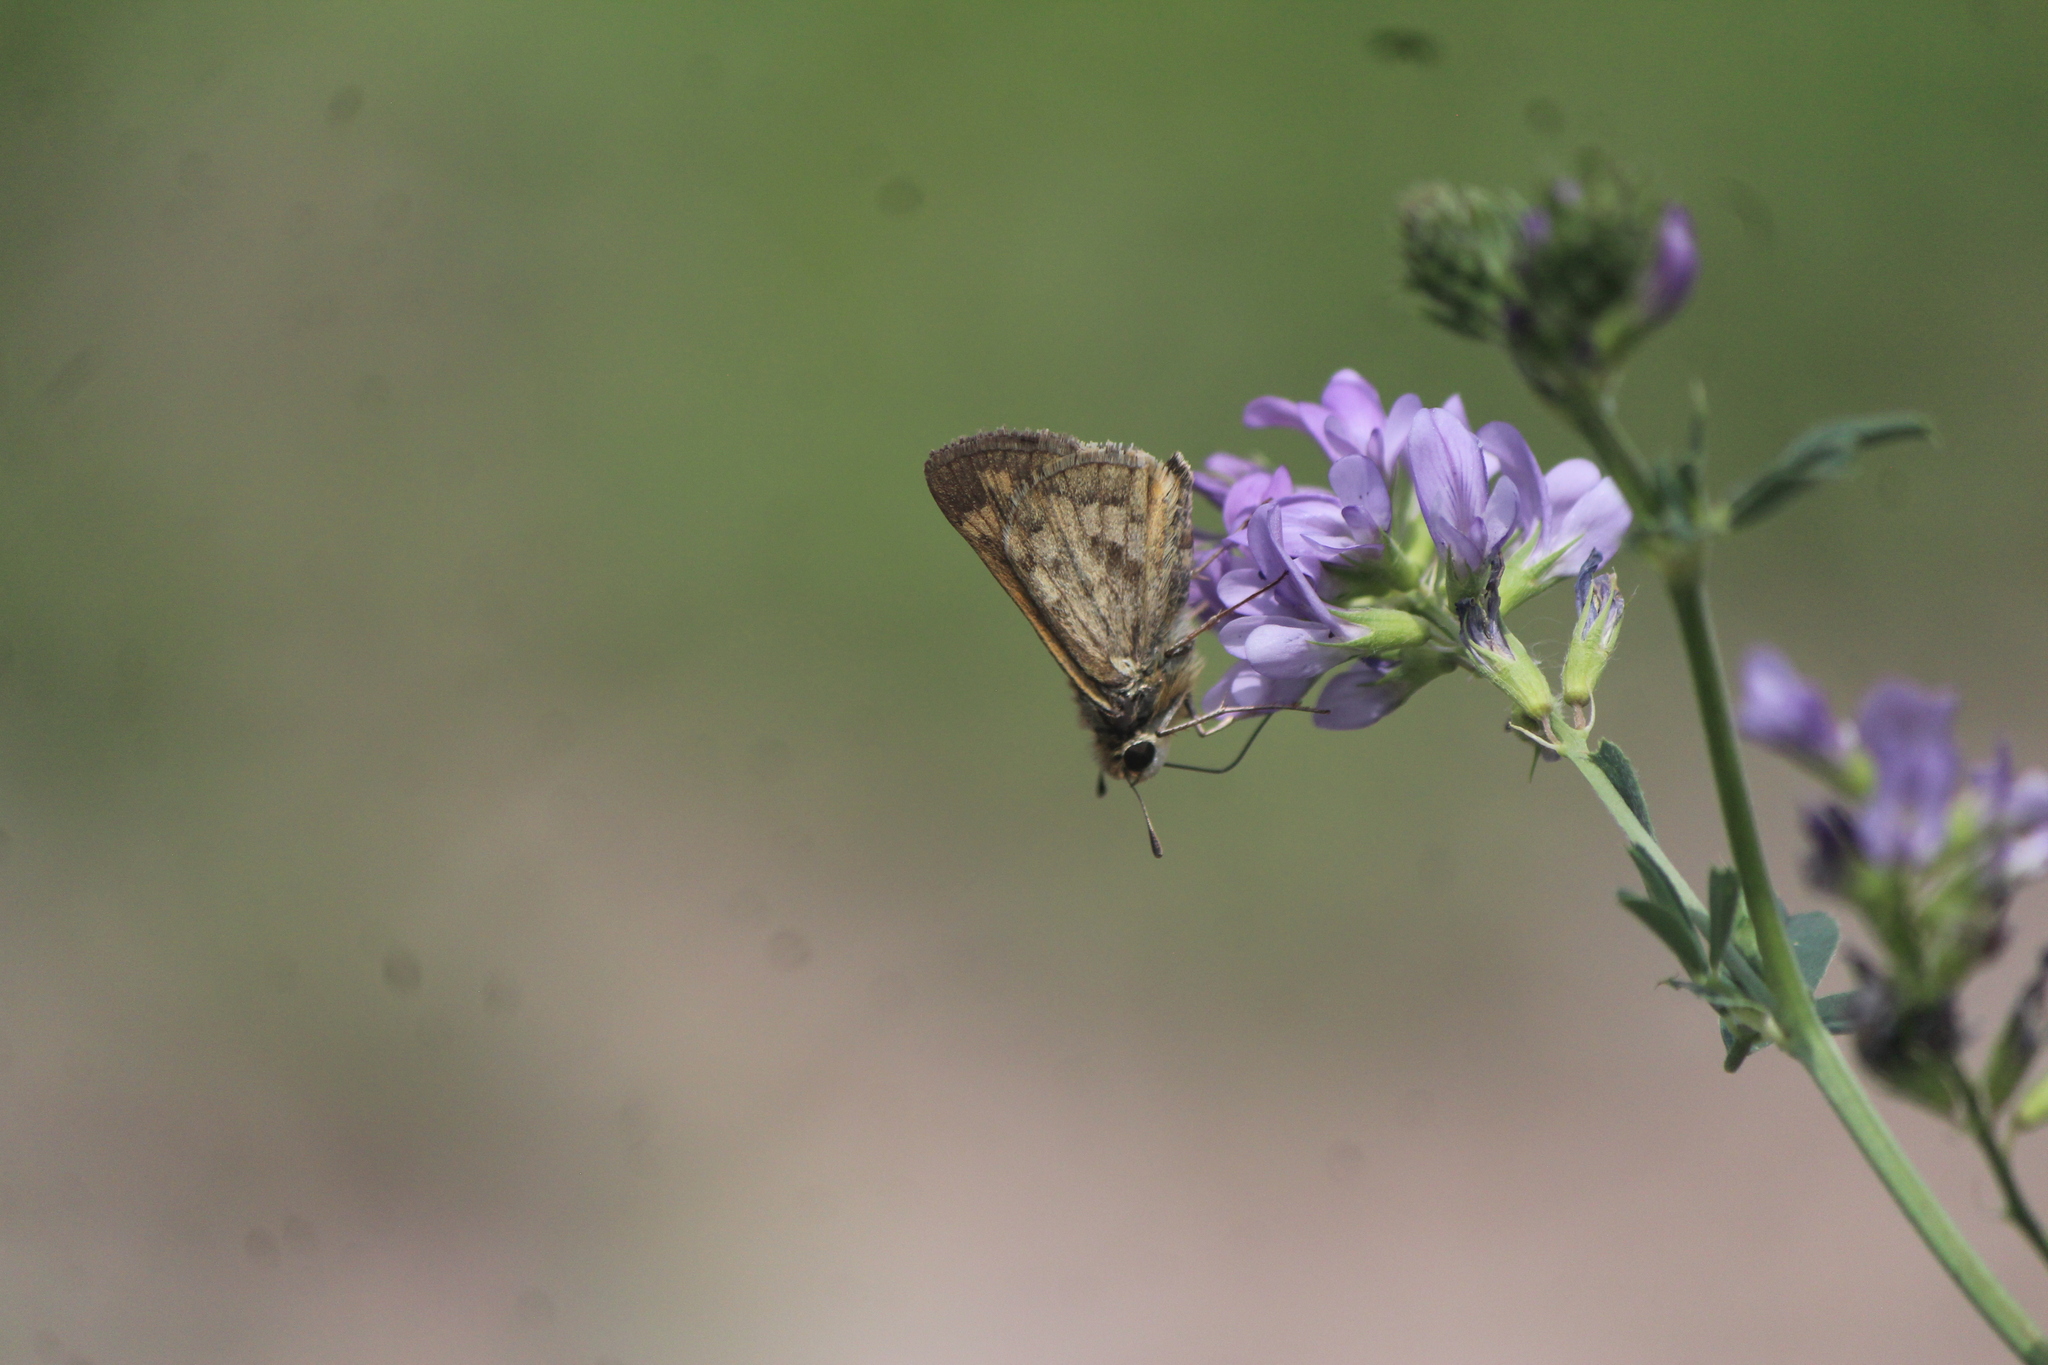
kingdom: Animalia
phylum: Arthropoda
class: Insecta
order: Lepidoptera
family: Hesperiidae
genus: Hylephila
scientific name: Hylephila phyleus
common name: Fiery skipper
